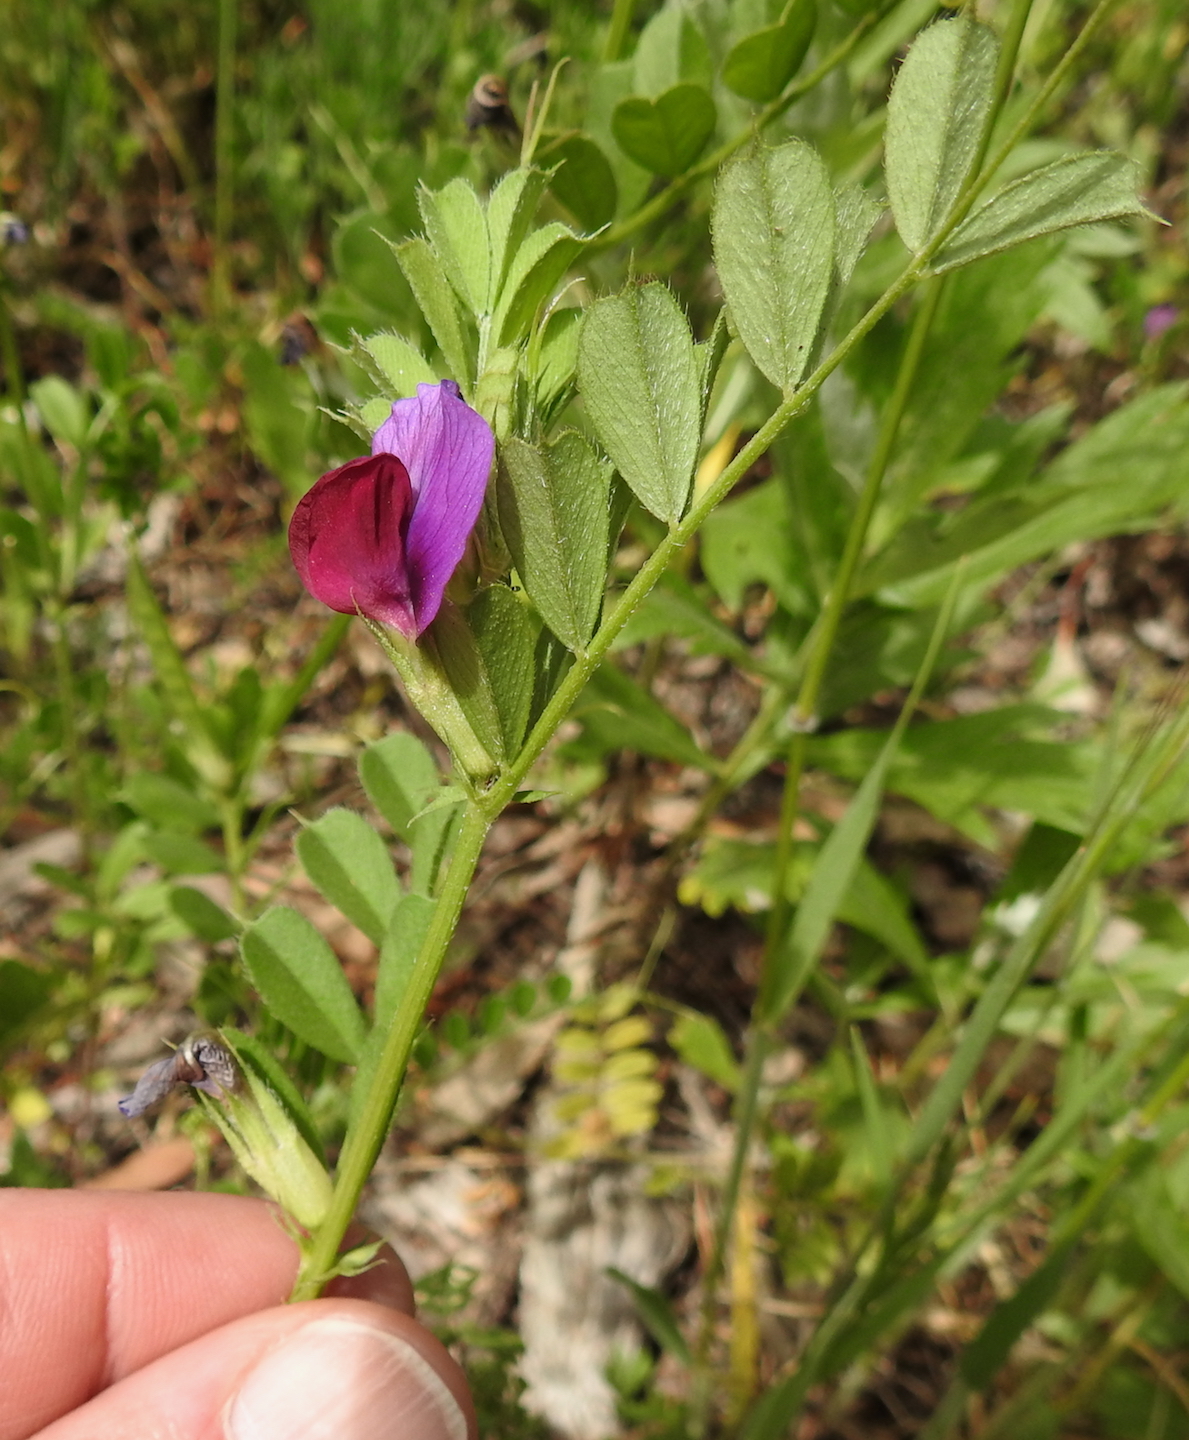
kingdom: Plantae
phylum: Tracheophyta
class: Magnoliopsida
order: Fabales
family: Fabaceae
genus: Vicia
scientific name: Vicia sativa
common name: Garden vetch
